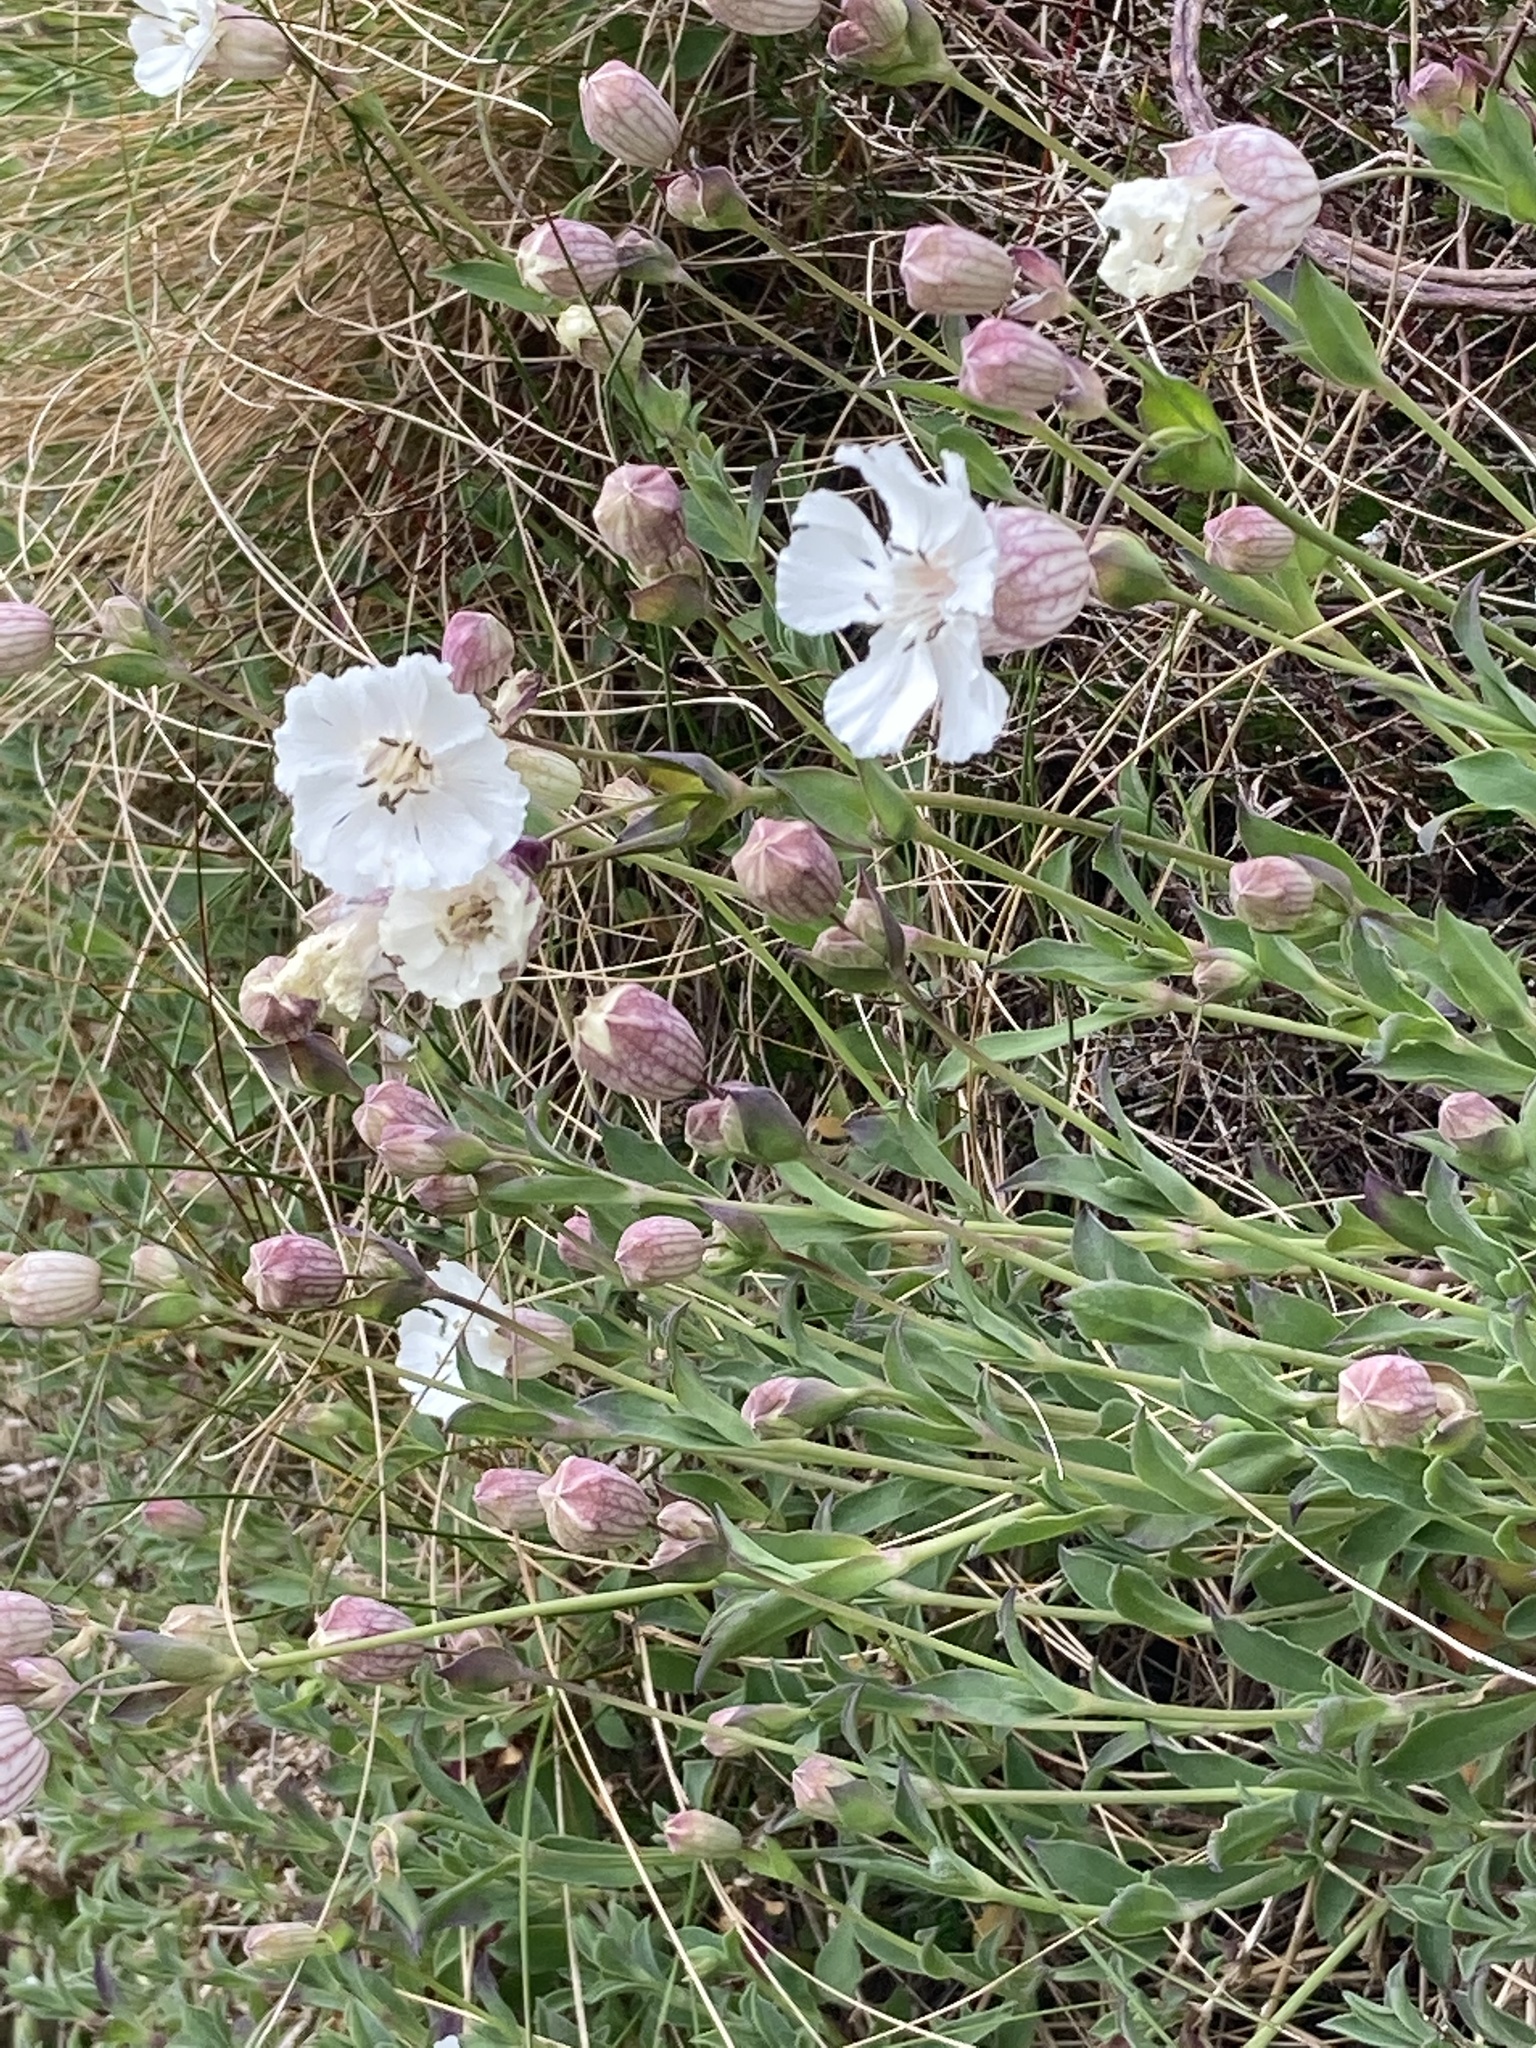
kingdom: Plantae
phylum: Tracheophyta
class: Magnoliopsida
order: Caryophyllales
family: Caryophyllaceae
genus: Silene
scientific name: Silene uniflora
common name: Sea campion
